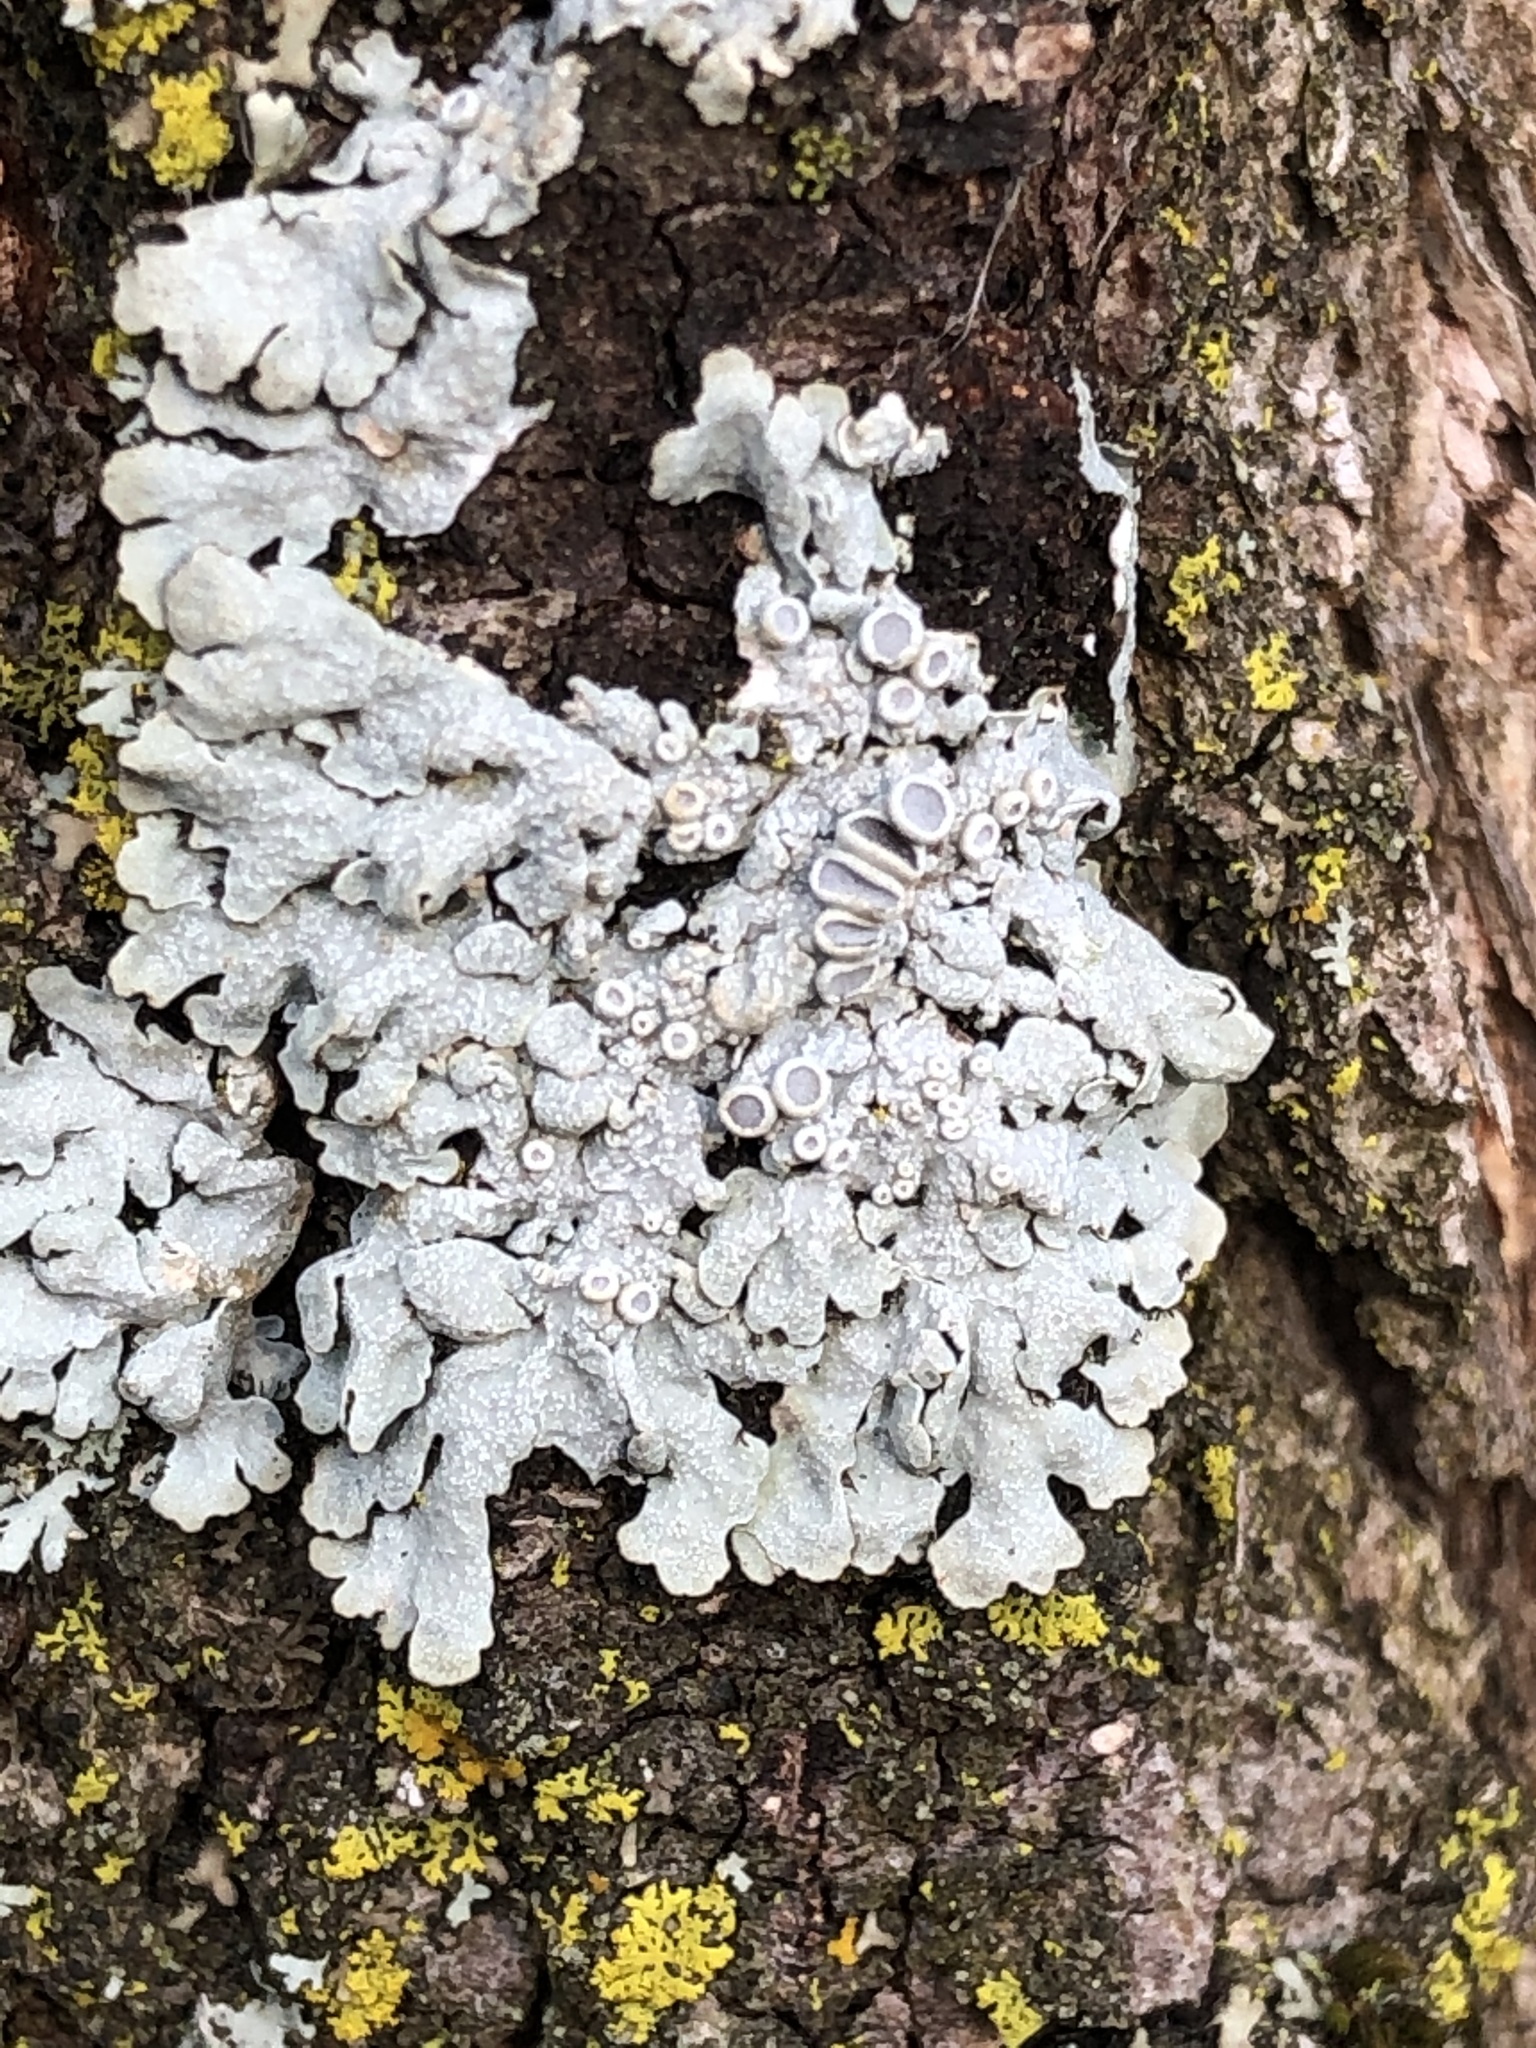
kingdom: Fungi
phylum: Ascomycota
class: Lecanoromycetes
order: Caliciales
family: Physciaceae
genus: Physcia
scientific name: Physcia aipolia
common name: Hoary rosette lichen
